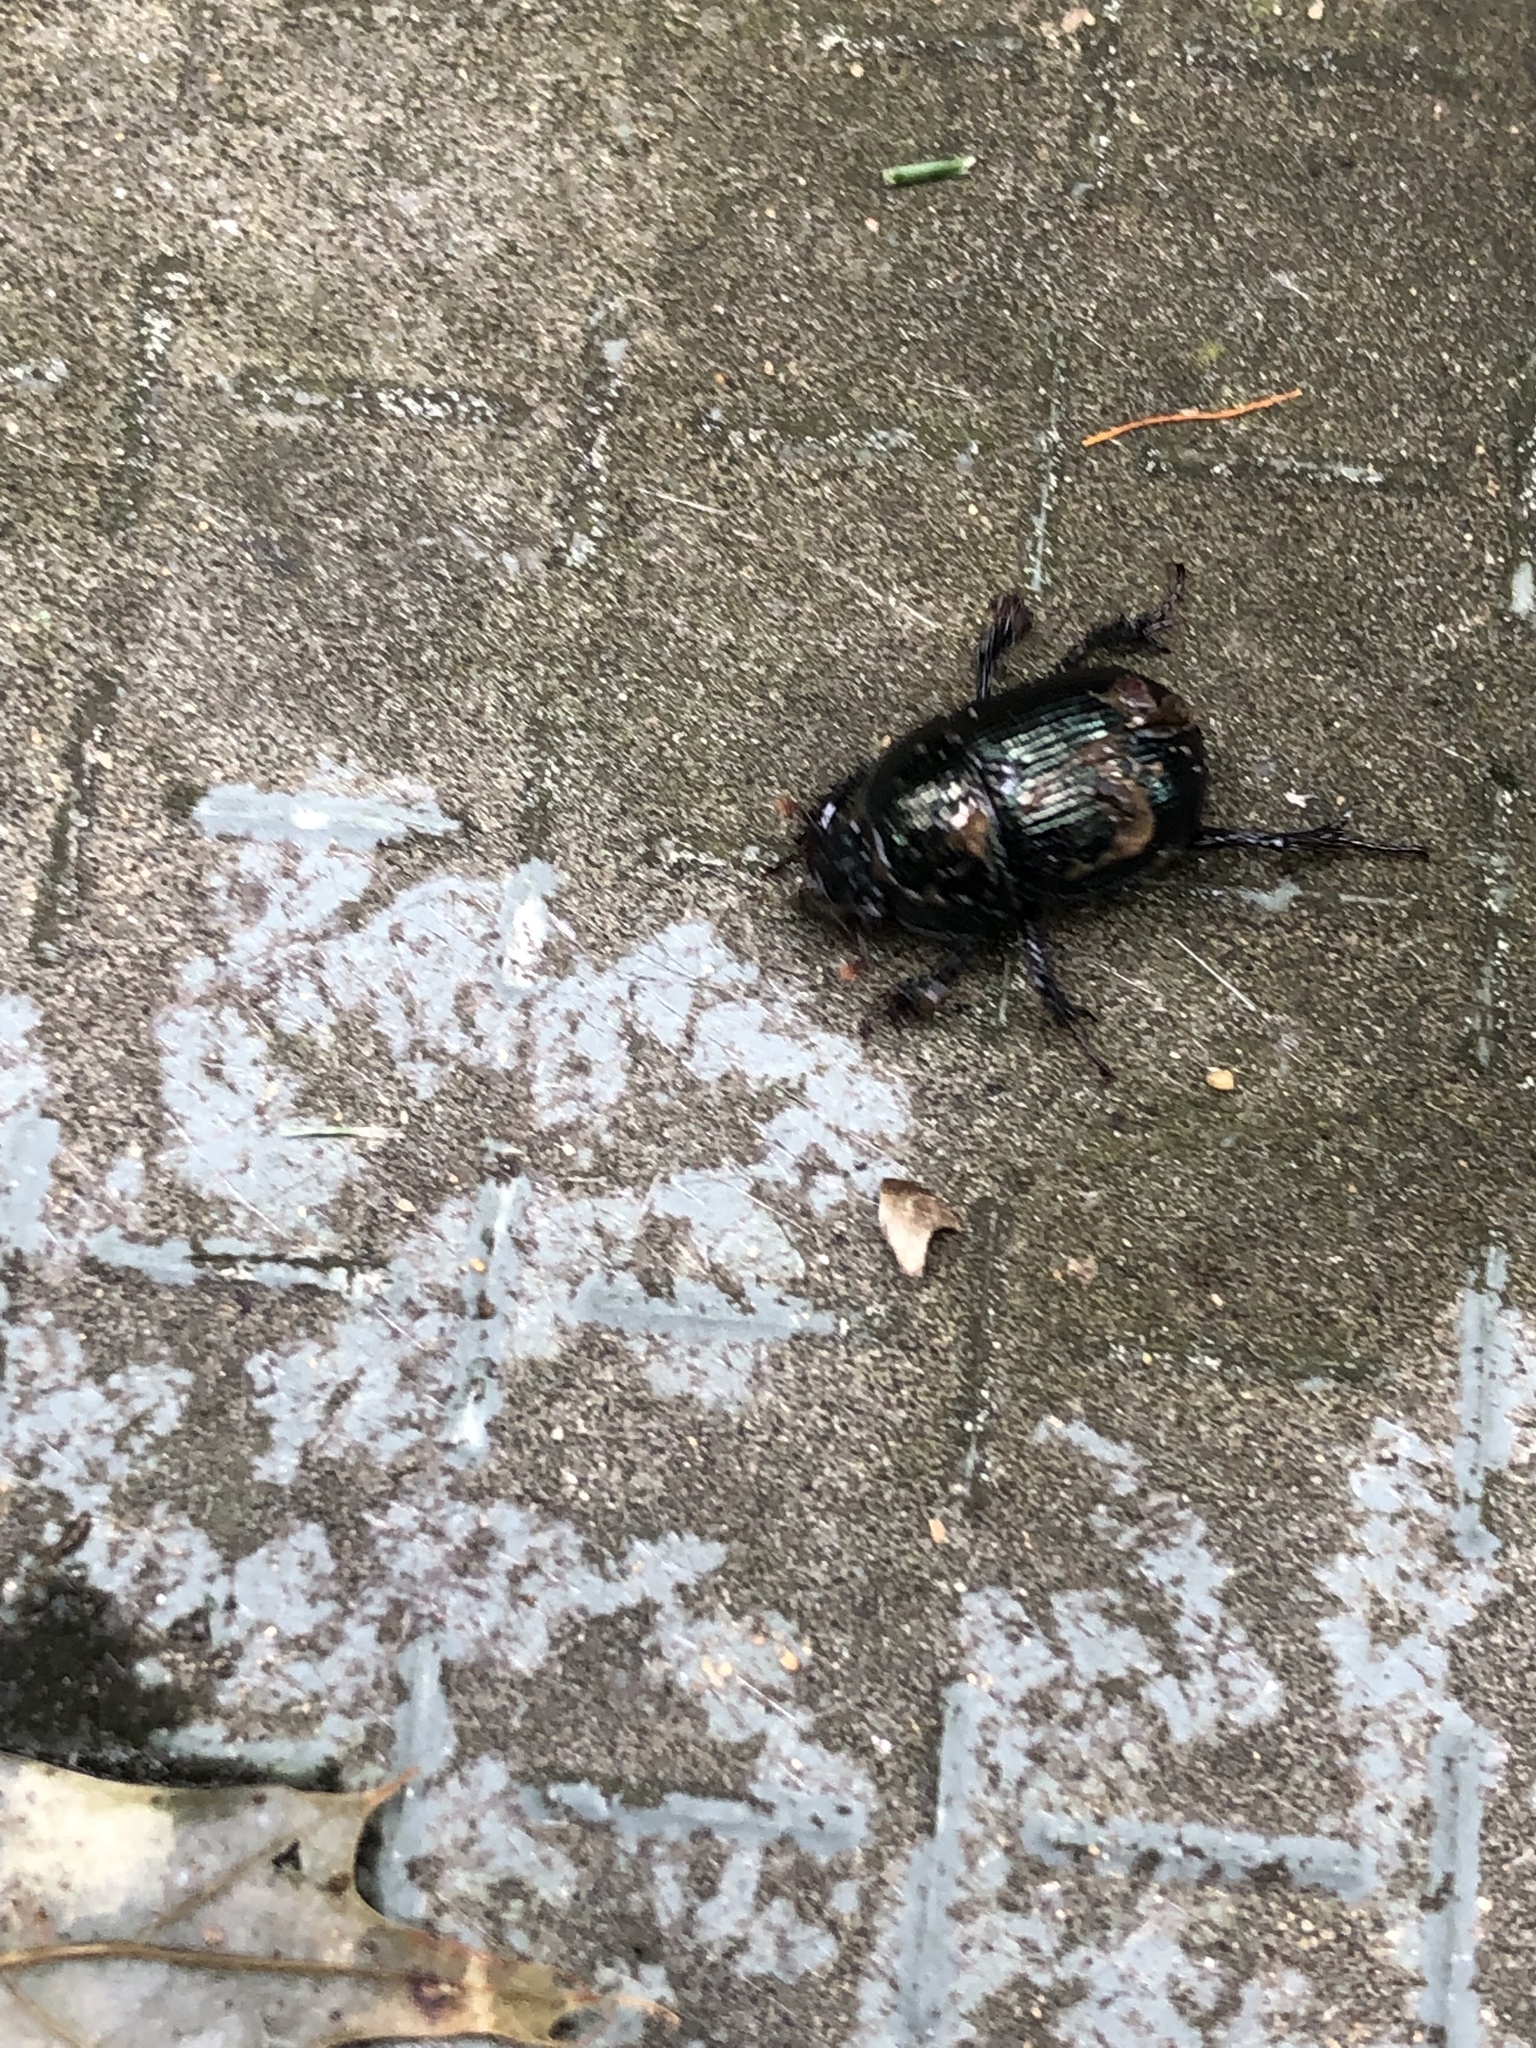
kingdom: Animalia
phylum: Arthropoda
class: Insecta
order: Coleoptera
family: Geotrupidae
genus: Anoplotrupes
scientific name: Anoplotrupes balyi
